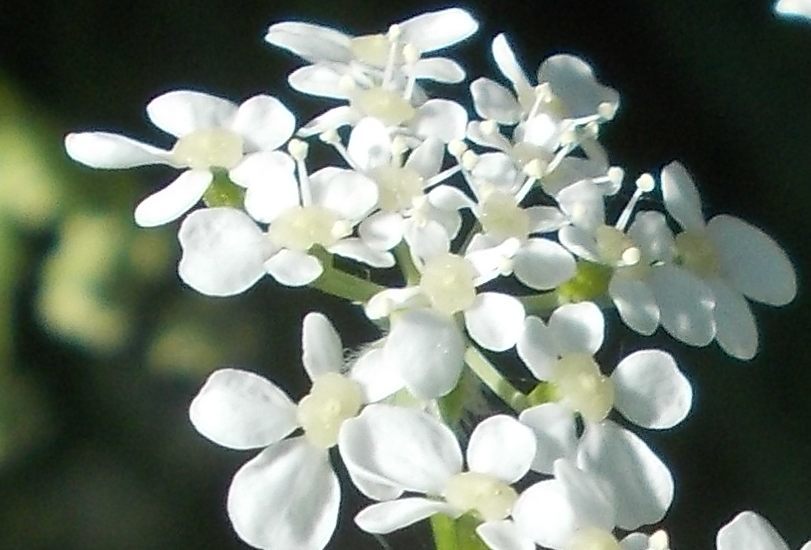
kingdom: Plantae
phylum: Tracheophyta
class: Magnoliopsida
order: Apiales
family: Apiaceae
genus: Anthriscus
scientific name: Anthriscus sylvestris
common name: Cow parsley
